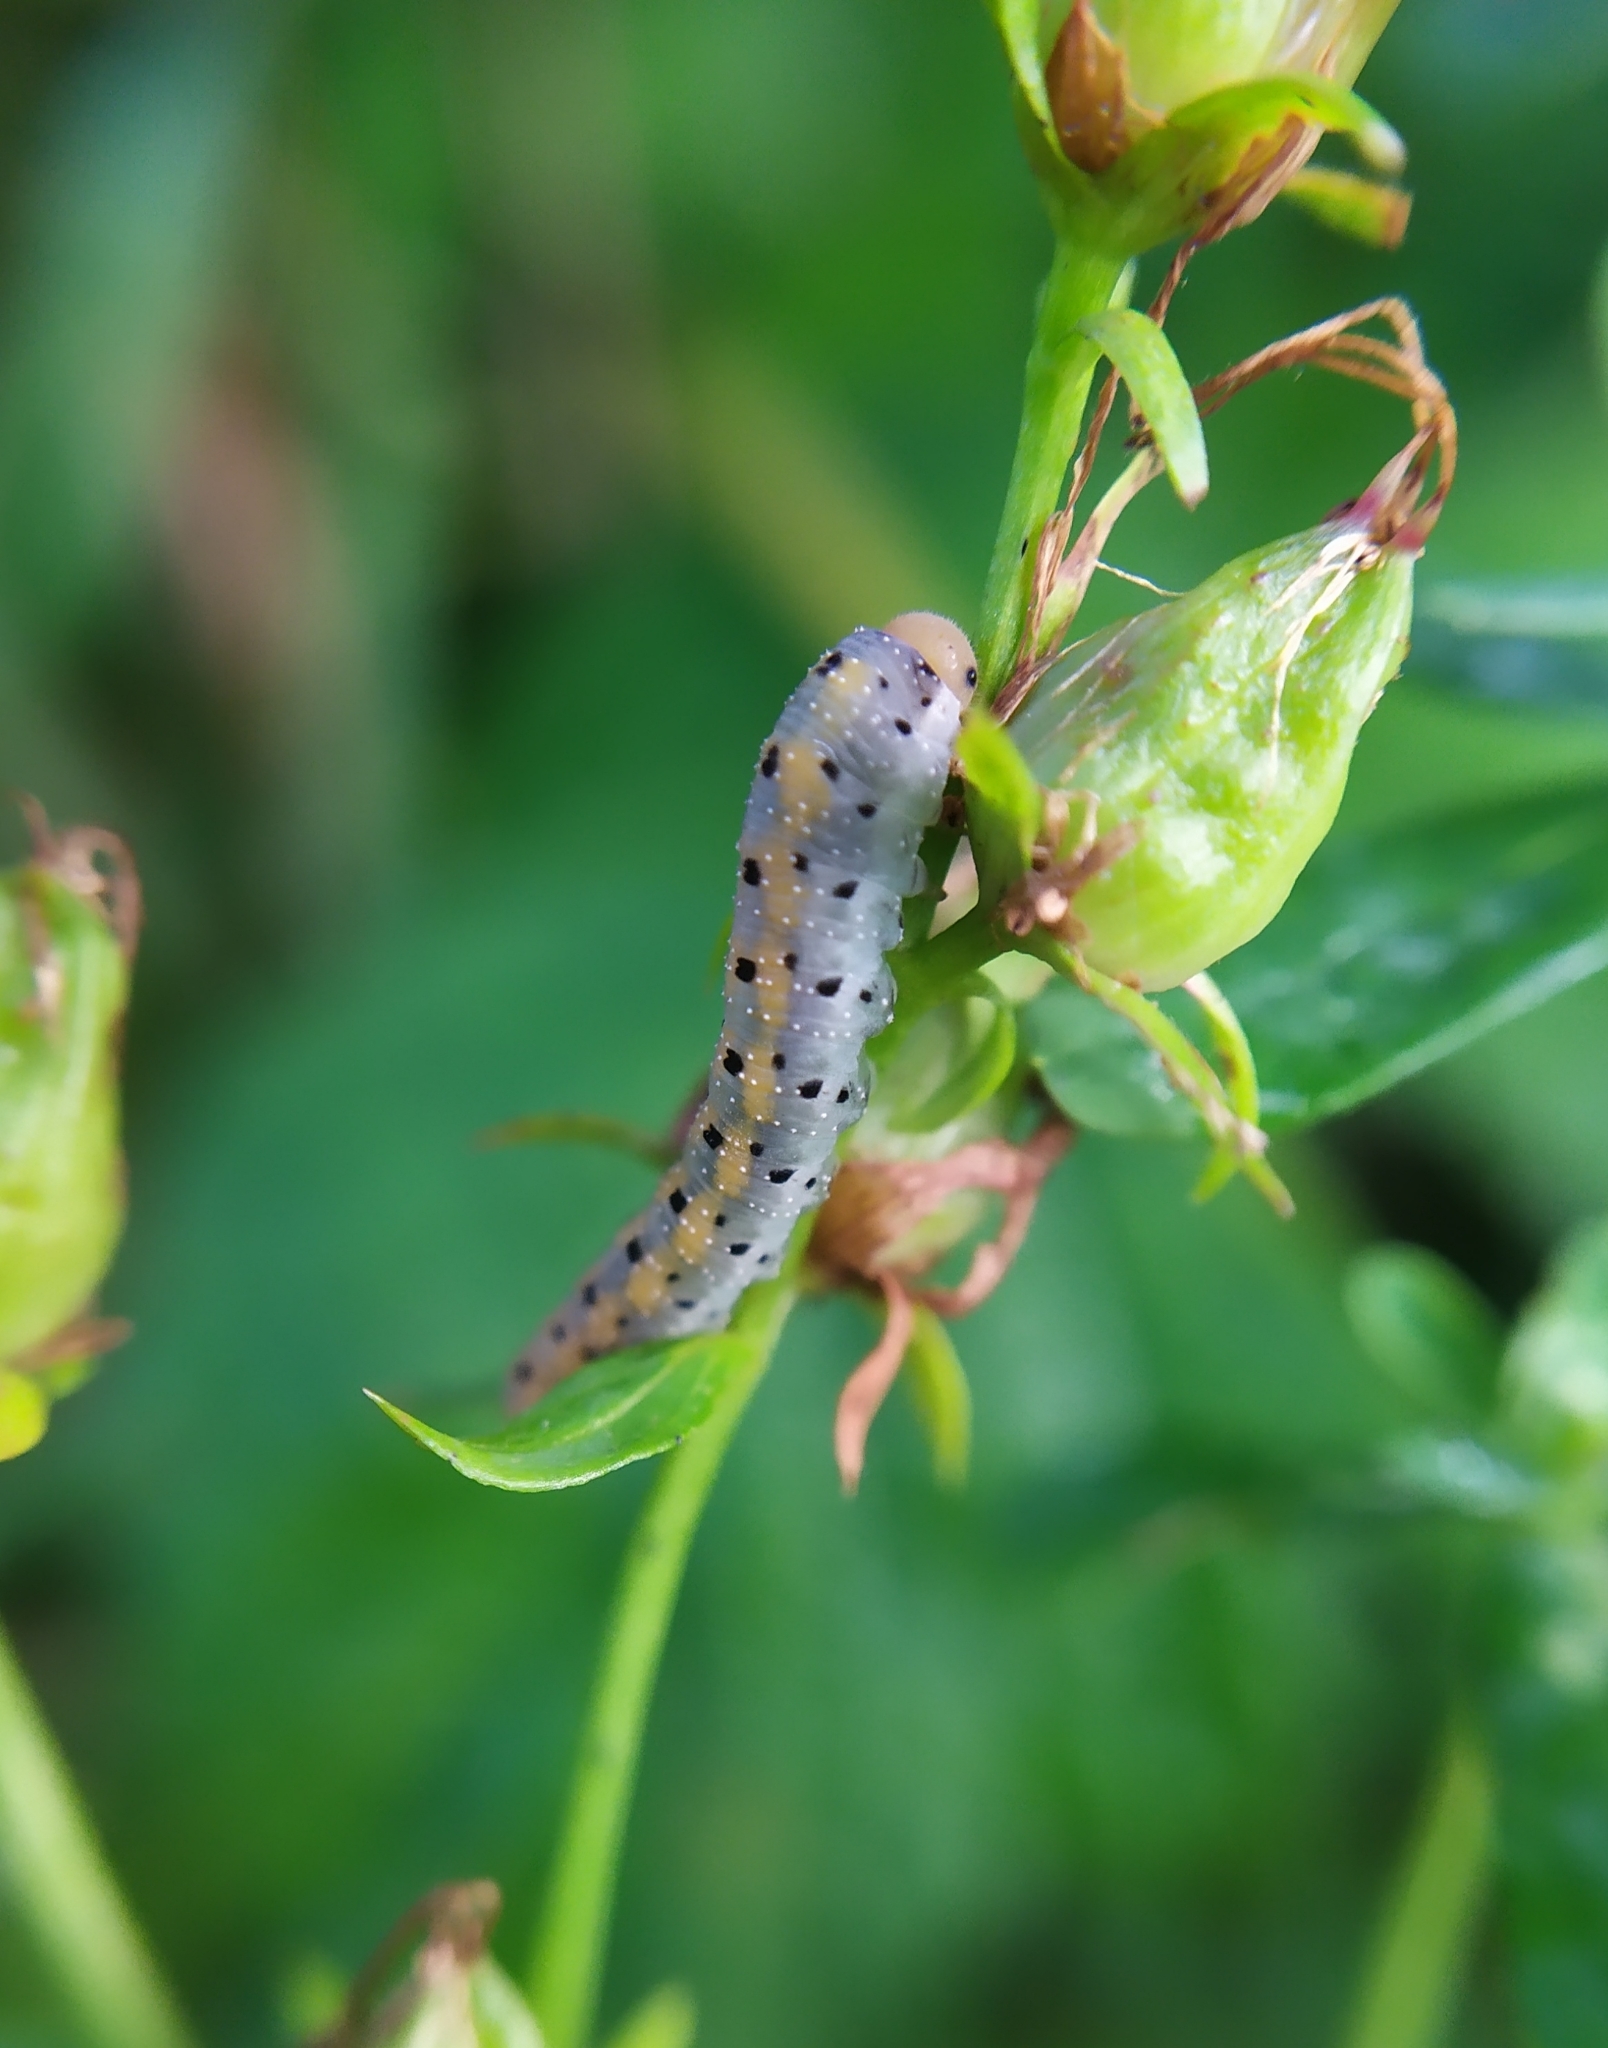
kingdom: Animalia
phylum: Arthropoda
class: Insecta
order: Hymenoptera
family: Tenthredinidae
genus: Tenthredo
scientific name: Tenthredo amoena
